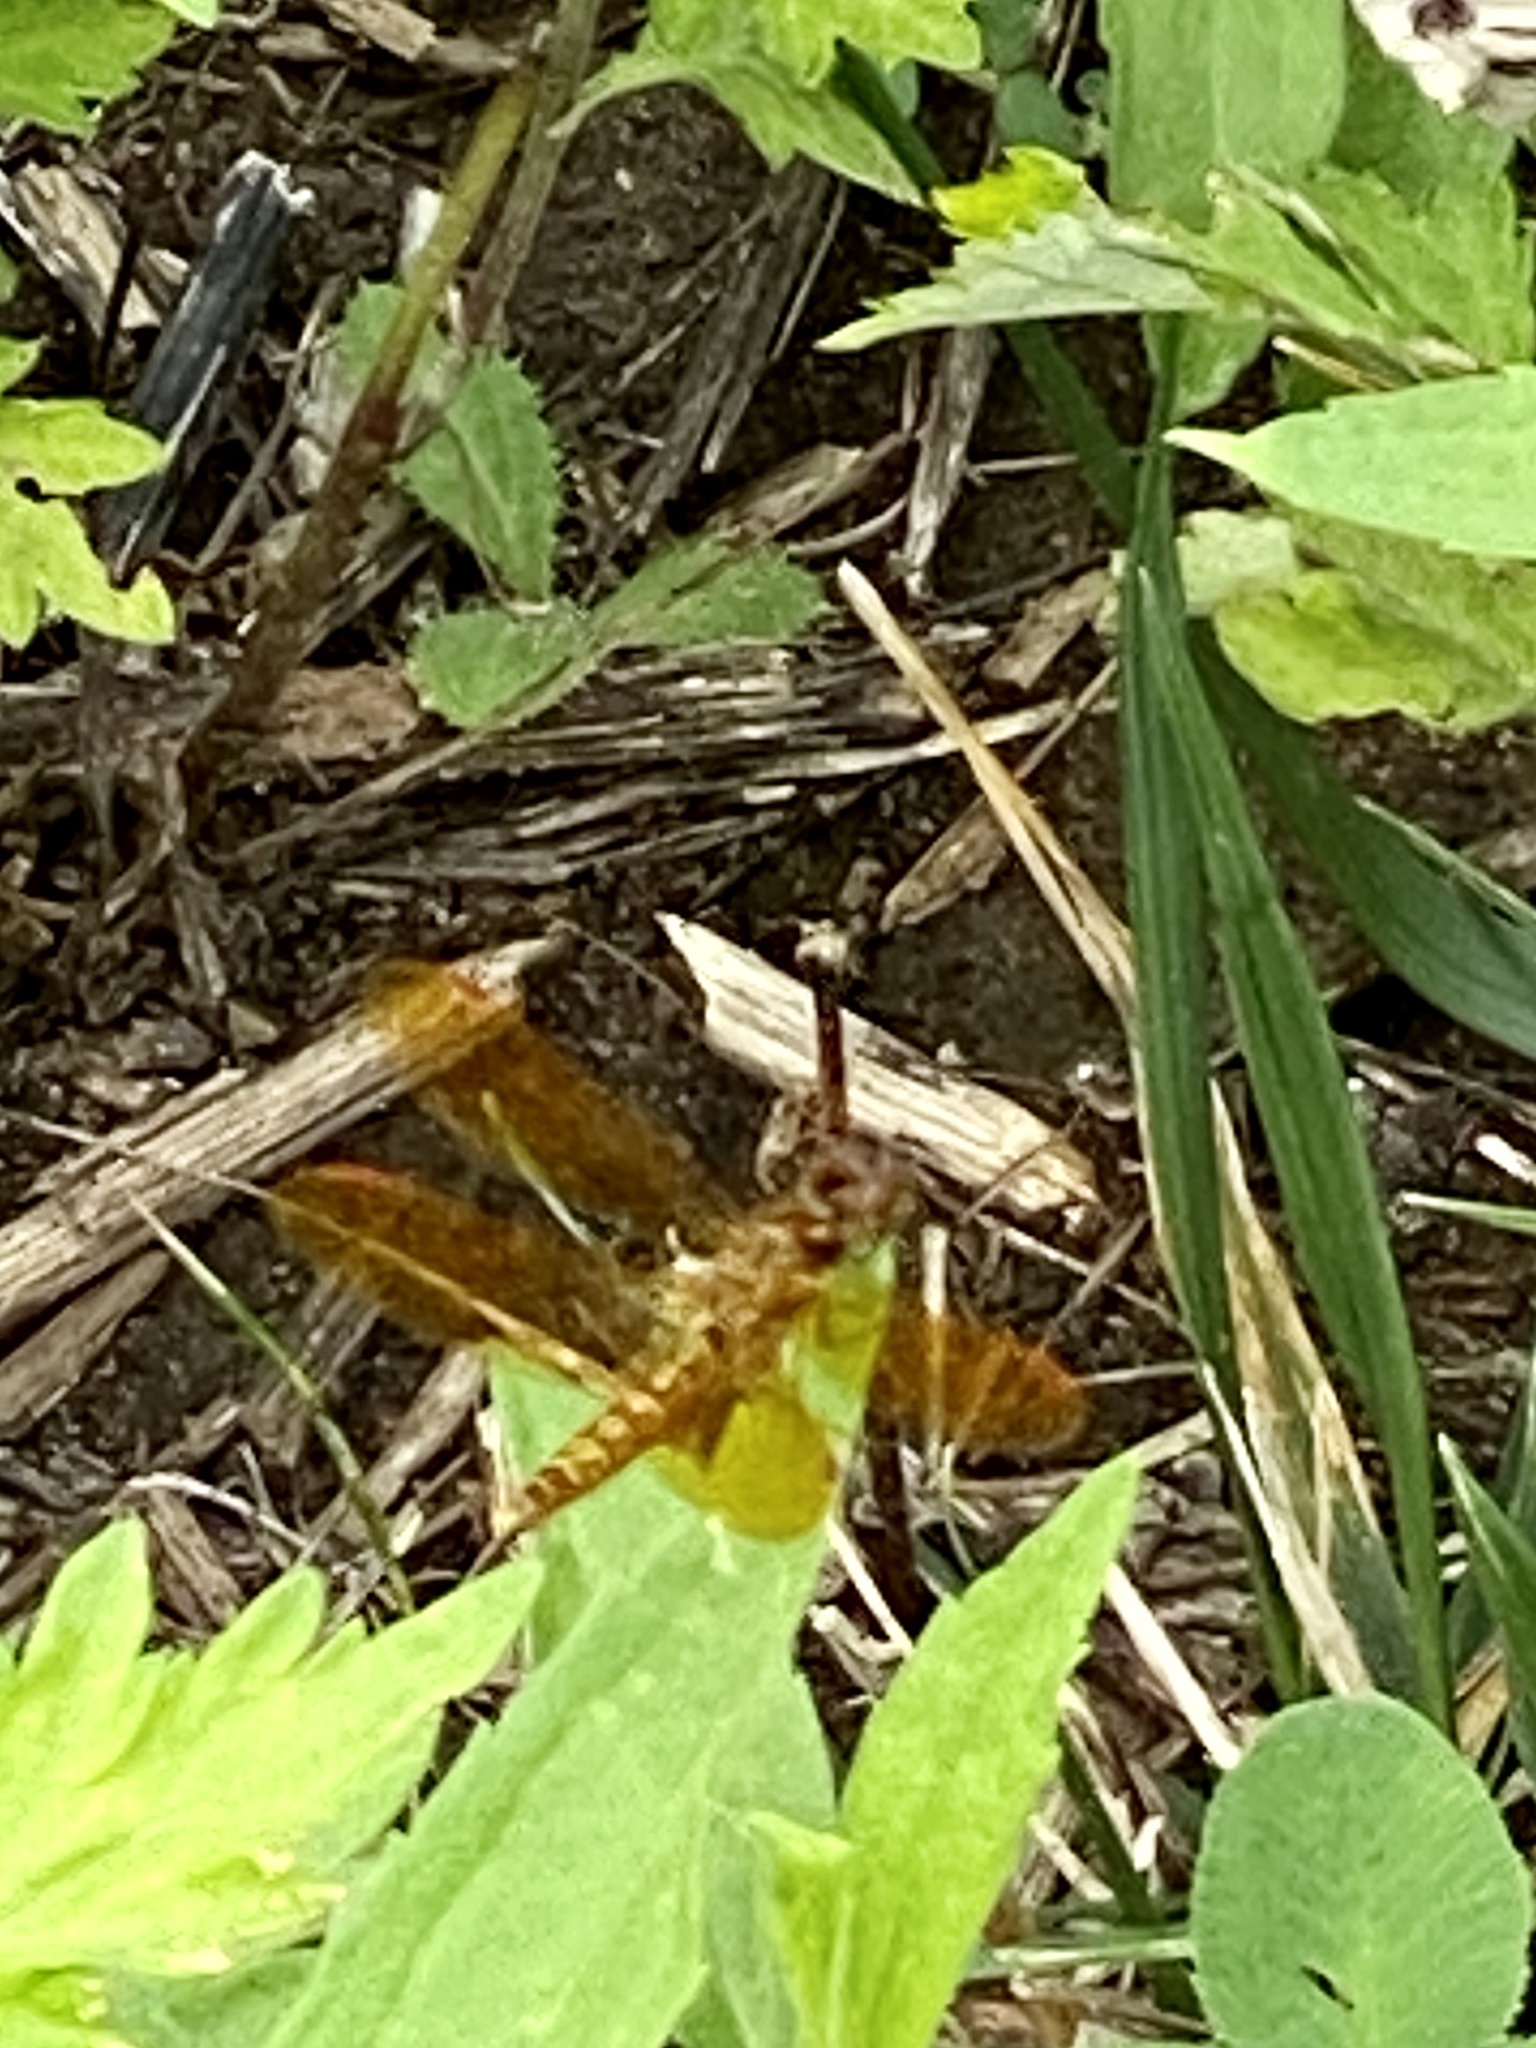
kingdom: Animalia
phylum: Arthropoda
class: Insecta
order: Odonata
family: Libellulidae
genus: Perithemis
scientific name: Perithemis tenera
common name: Eastern amberwing
